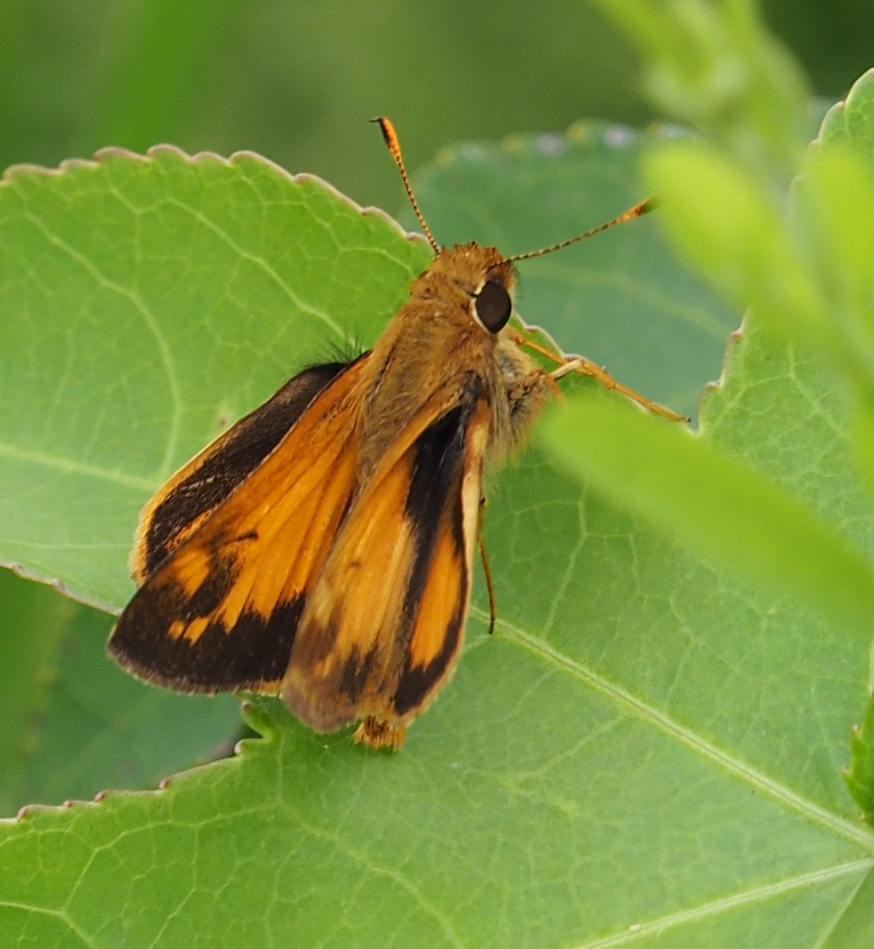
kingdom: Animalia
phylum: Arthropoda
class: Insecta
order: Lepidoptera
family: Hesperiidae
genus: Lon
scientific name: Lon zabulon
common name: Zabulon skipper
